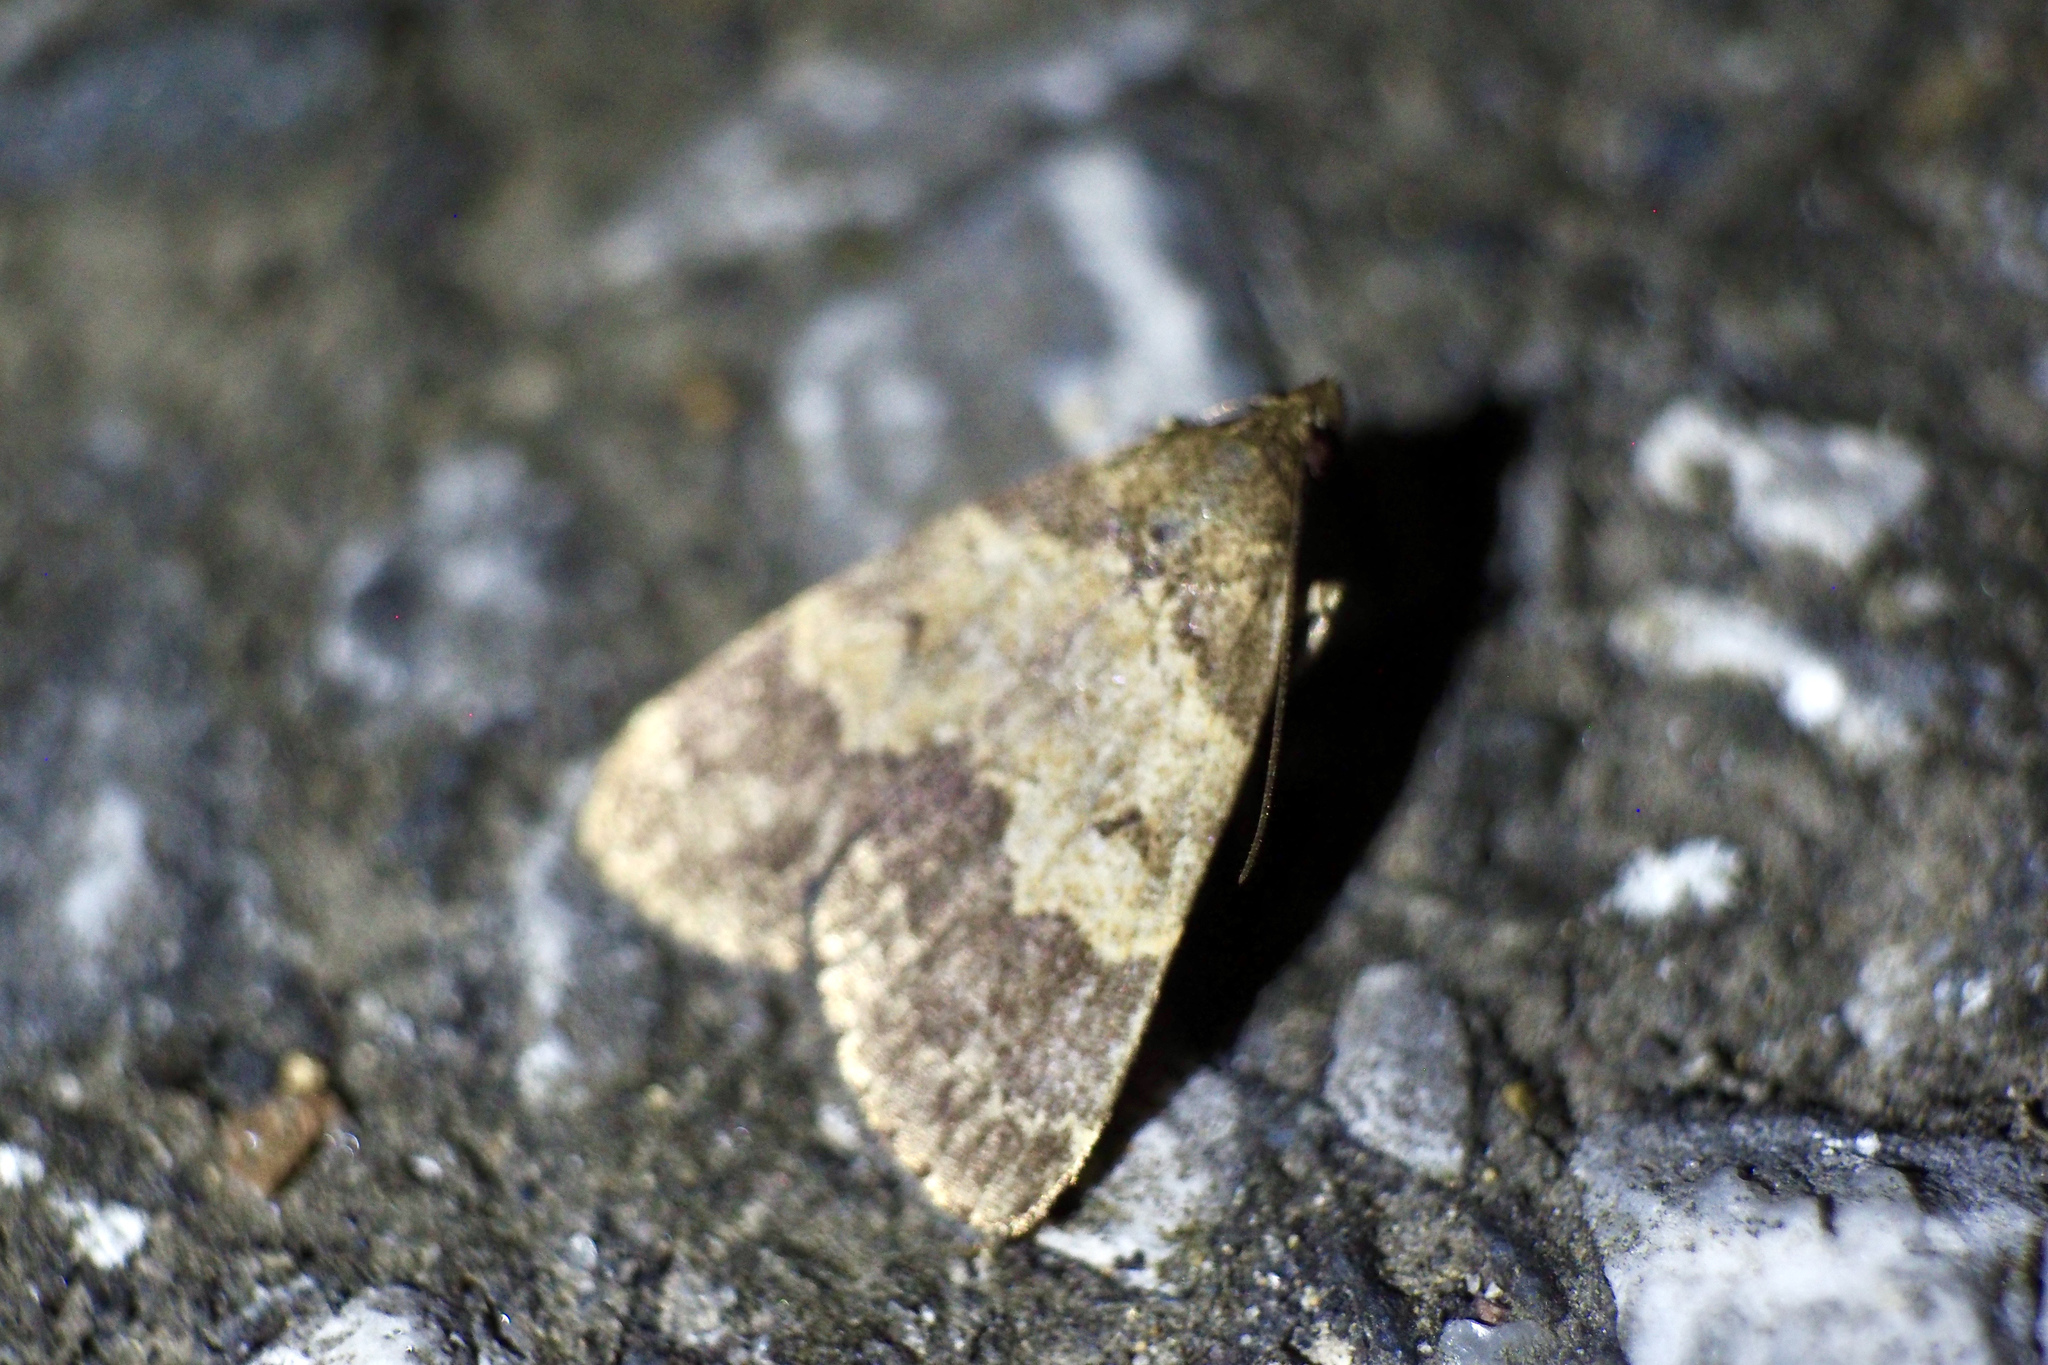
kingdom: Animalia
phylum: Arthropoda
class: Insecta
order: Lepidoptera
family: Erebidae
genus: Hydrillodes
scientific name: Hydrillodes lentalis
